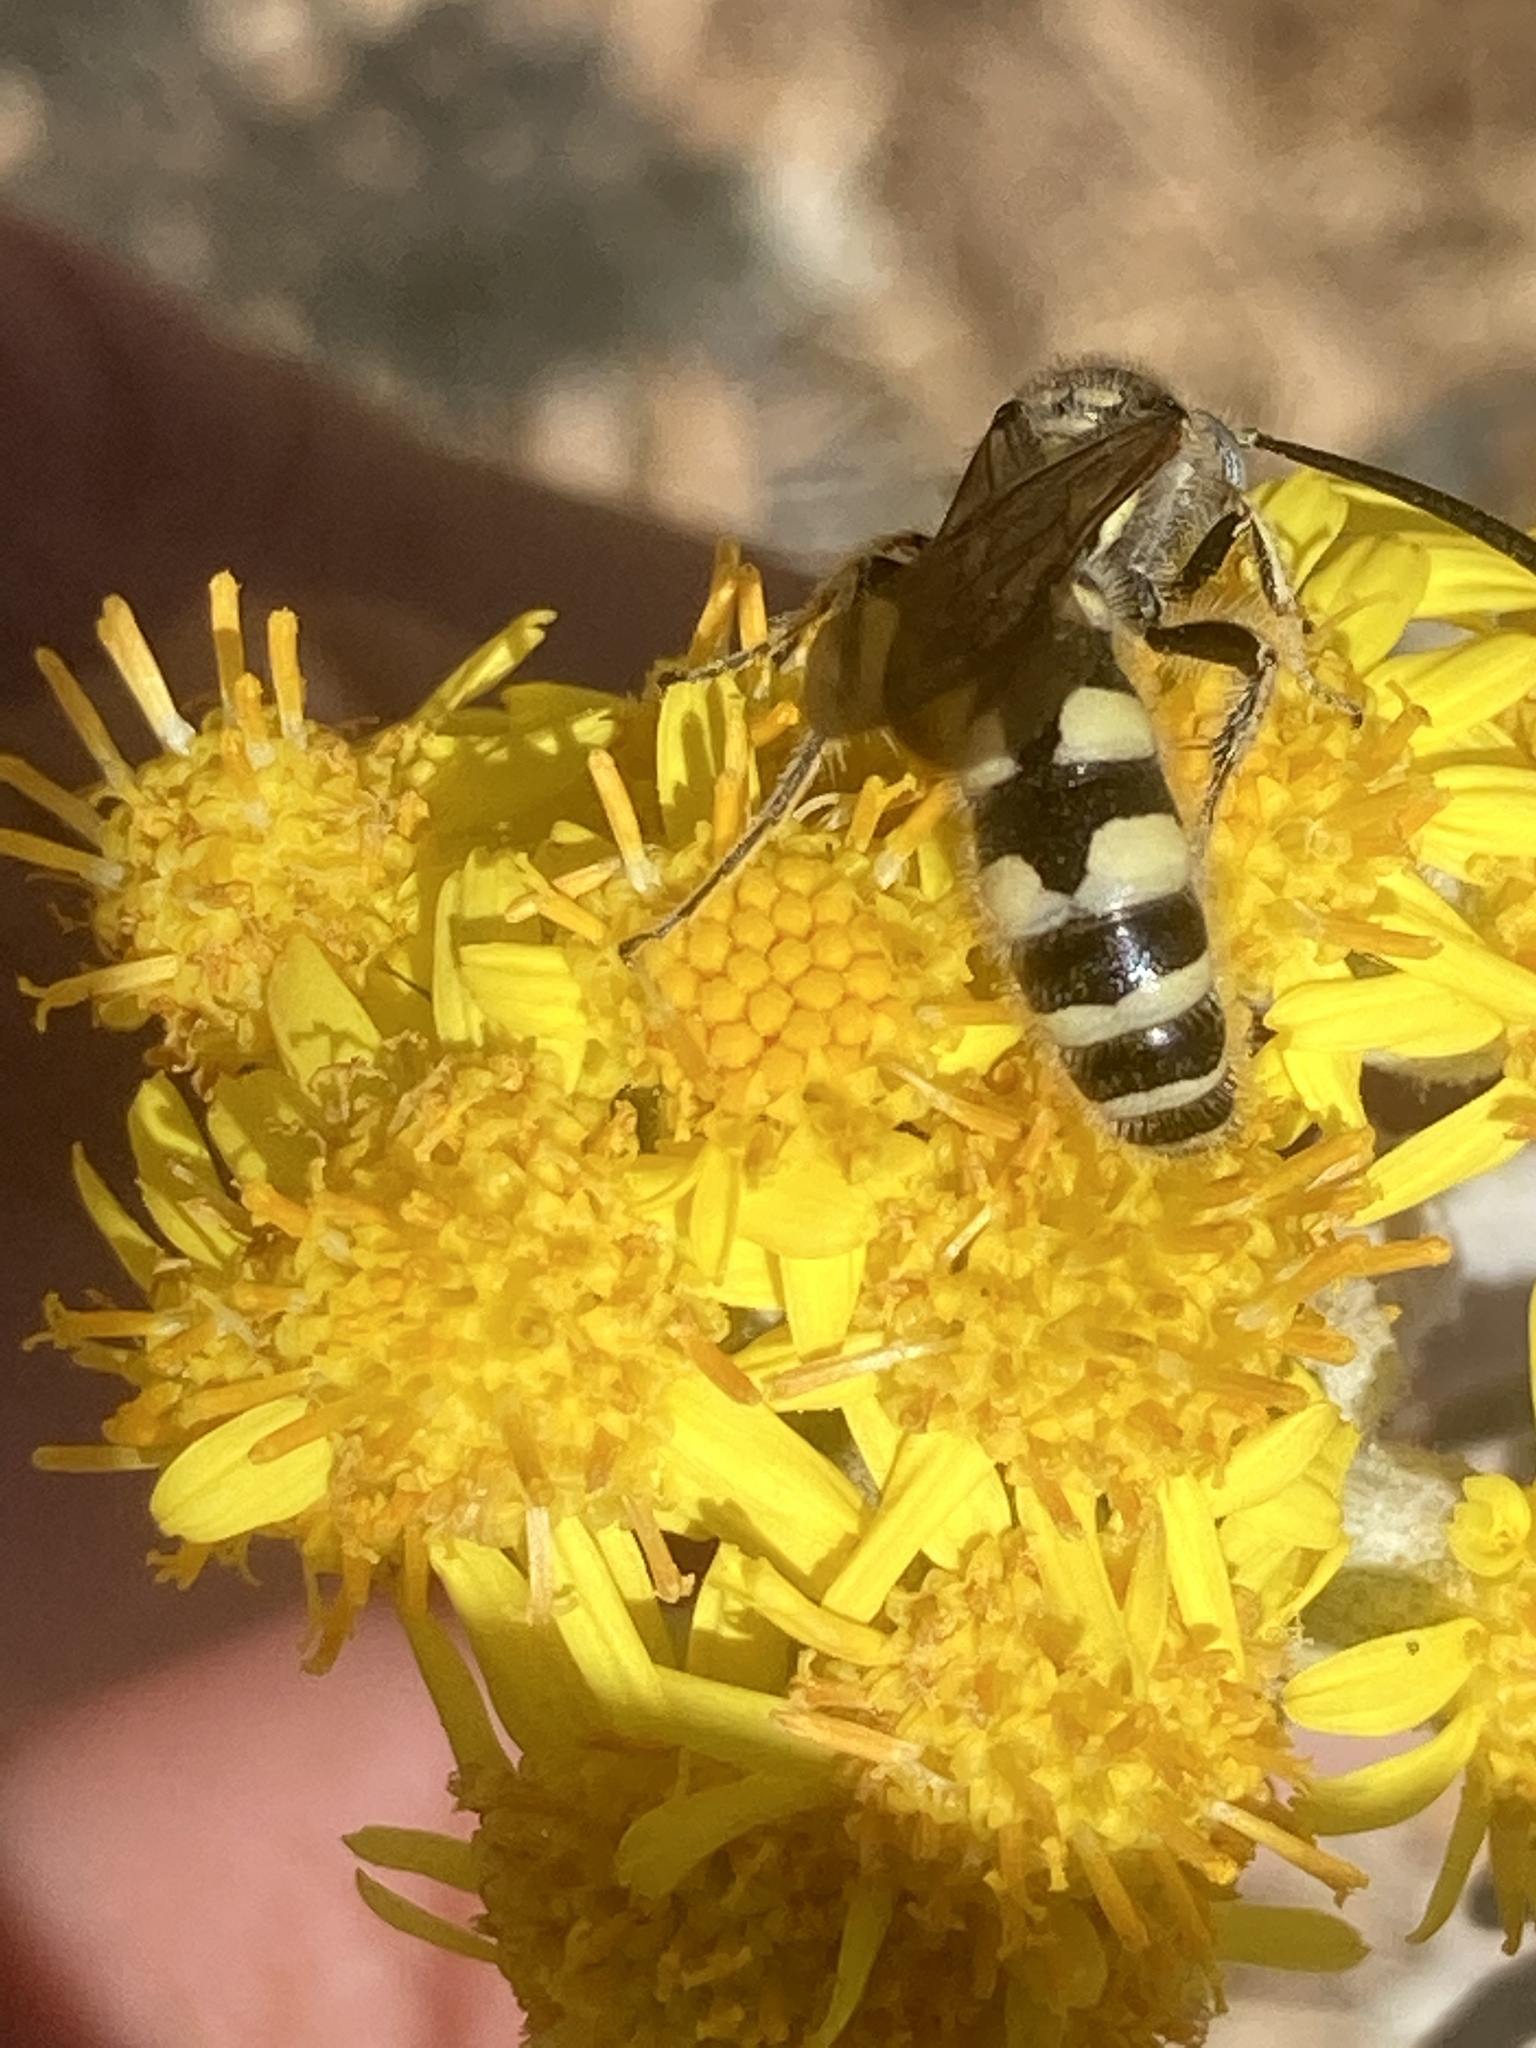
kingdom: Animalia
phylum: Arthropoda
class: Insecta
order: Hymenoptera
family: Vespidae
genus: Vespa
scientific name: Vespa sexmaculata
